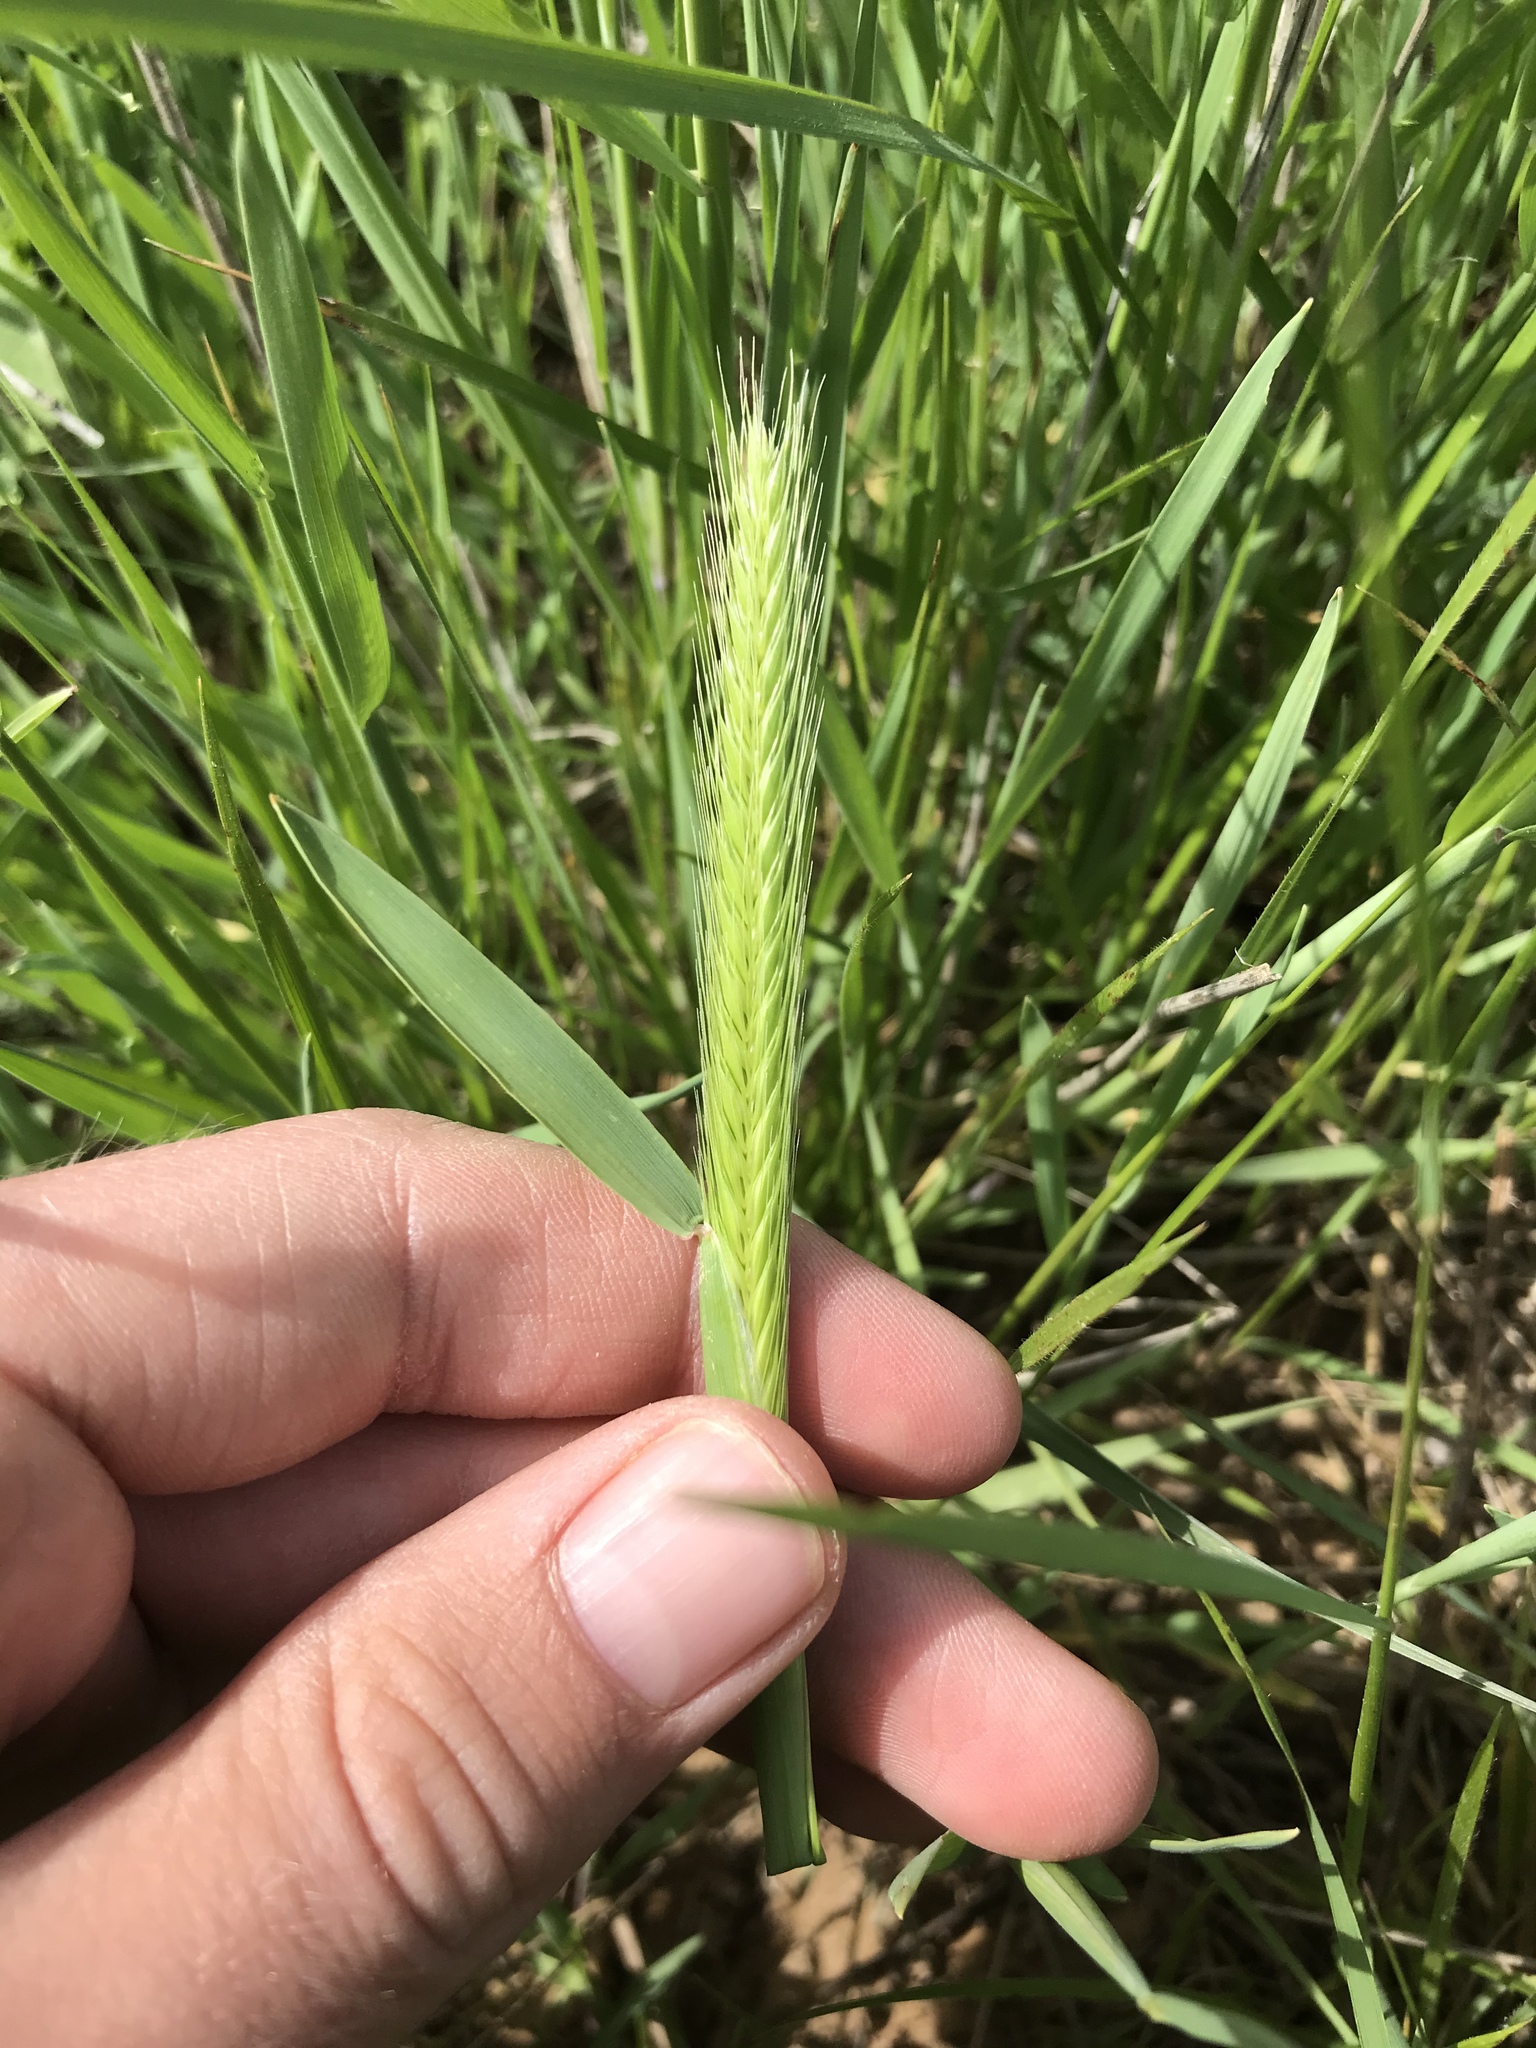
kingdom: Plantae
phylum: Tracheophyta
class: Liliopsida
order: Poales
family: Poaceae
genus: Hordeum
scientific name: Hordeum pusillum
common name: Little barley
